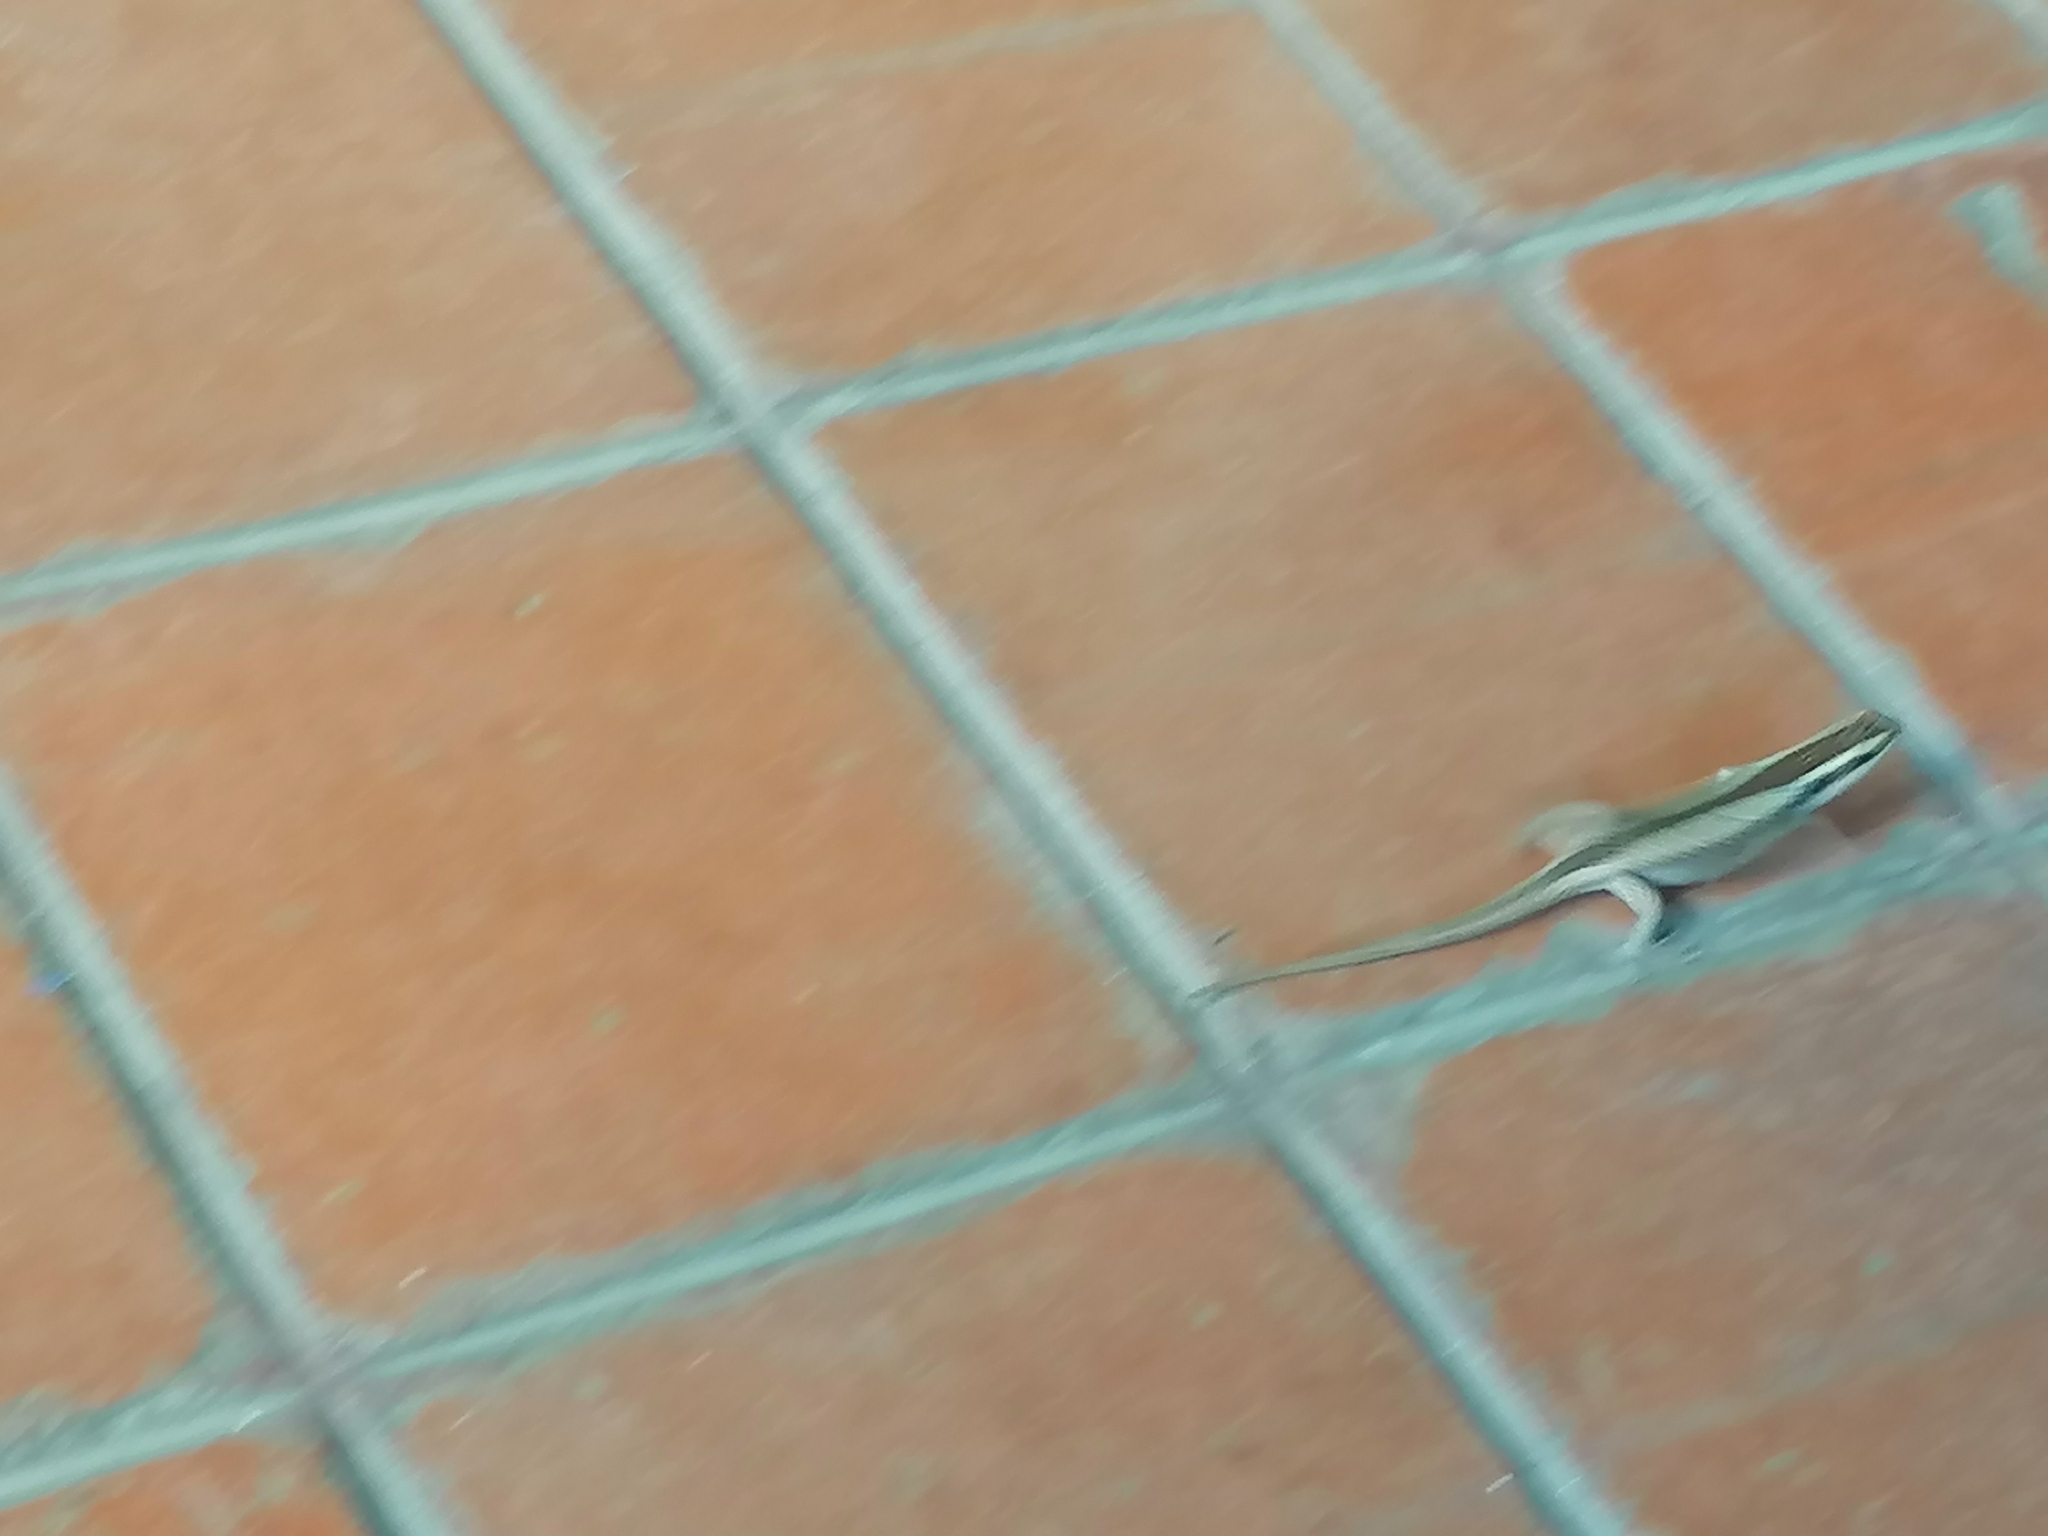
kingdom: Animalia
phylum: Chordata
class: Squamata
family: Scincidae
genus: Trachylepis
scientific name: Trachylepis striata
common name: African striped mabuya
